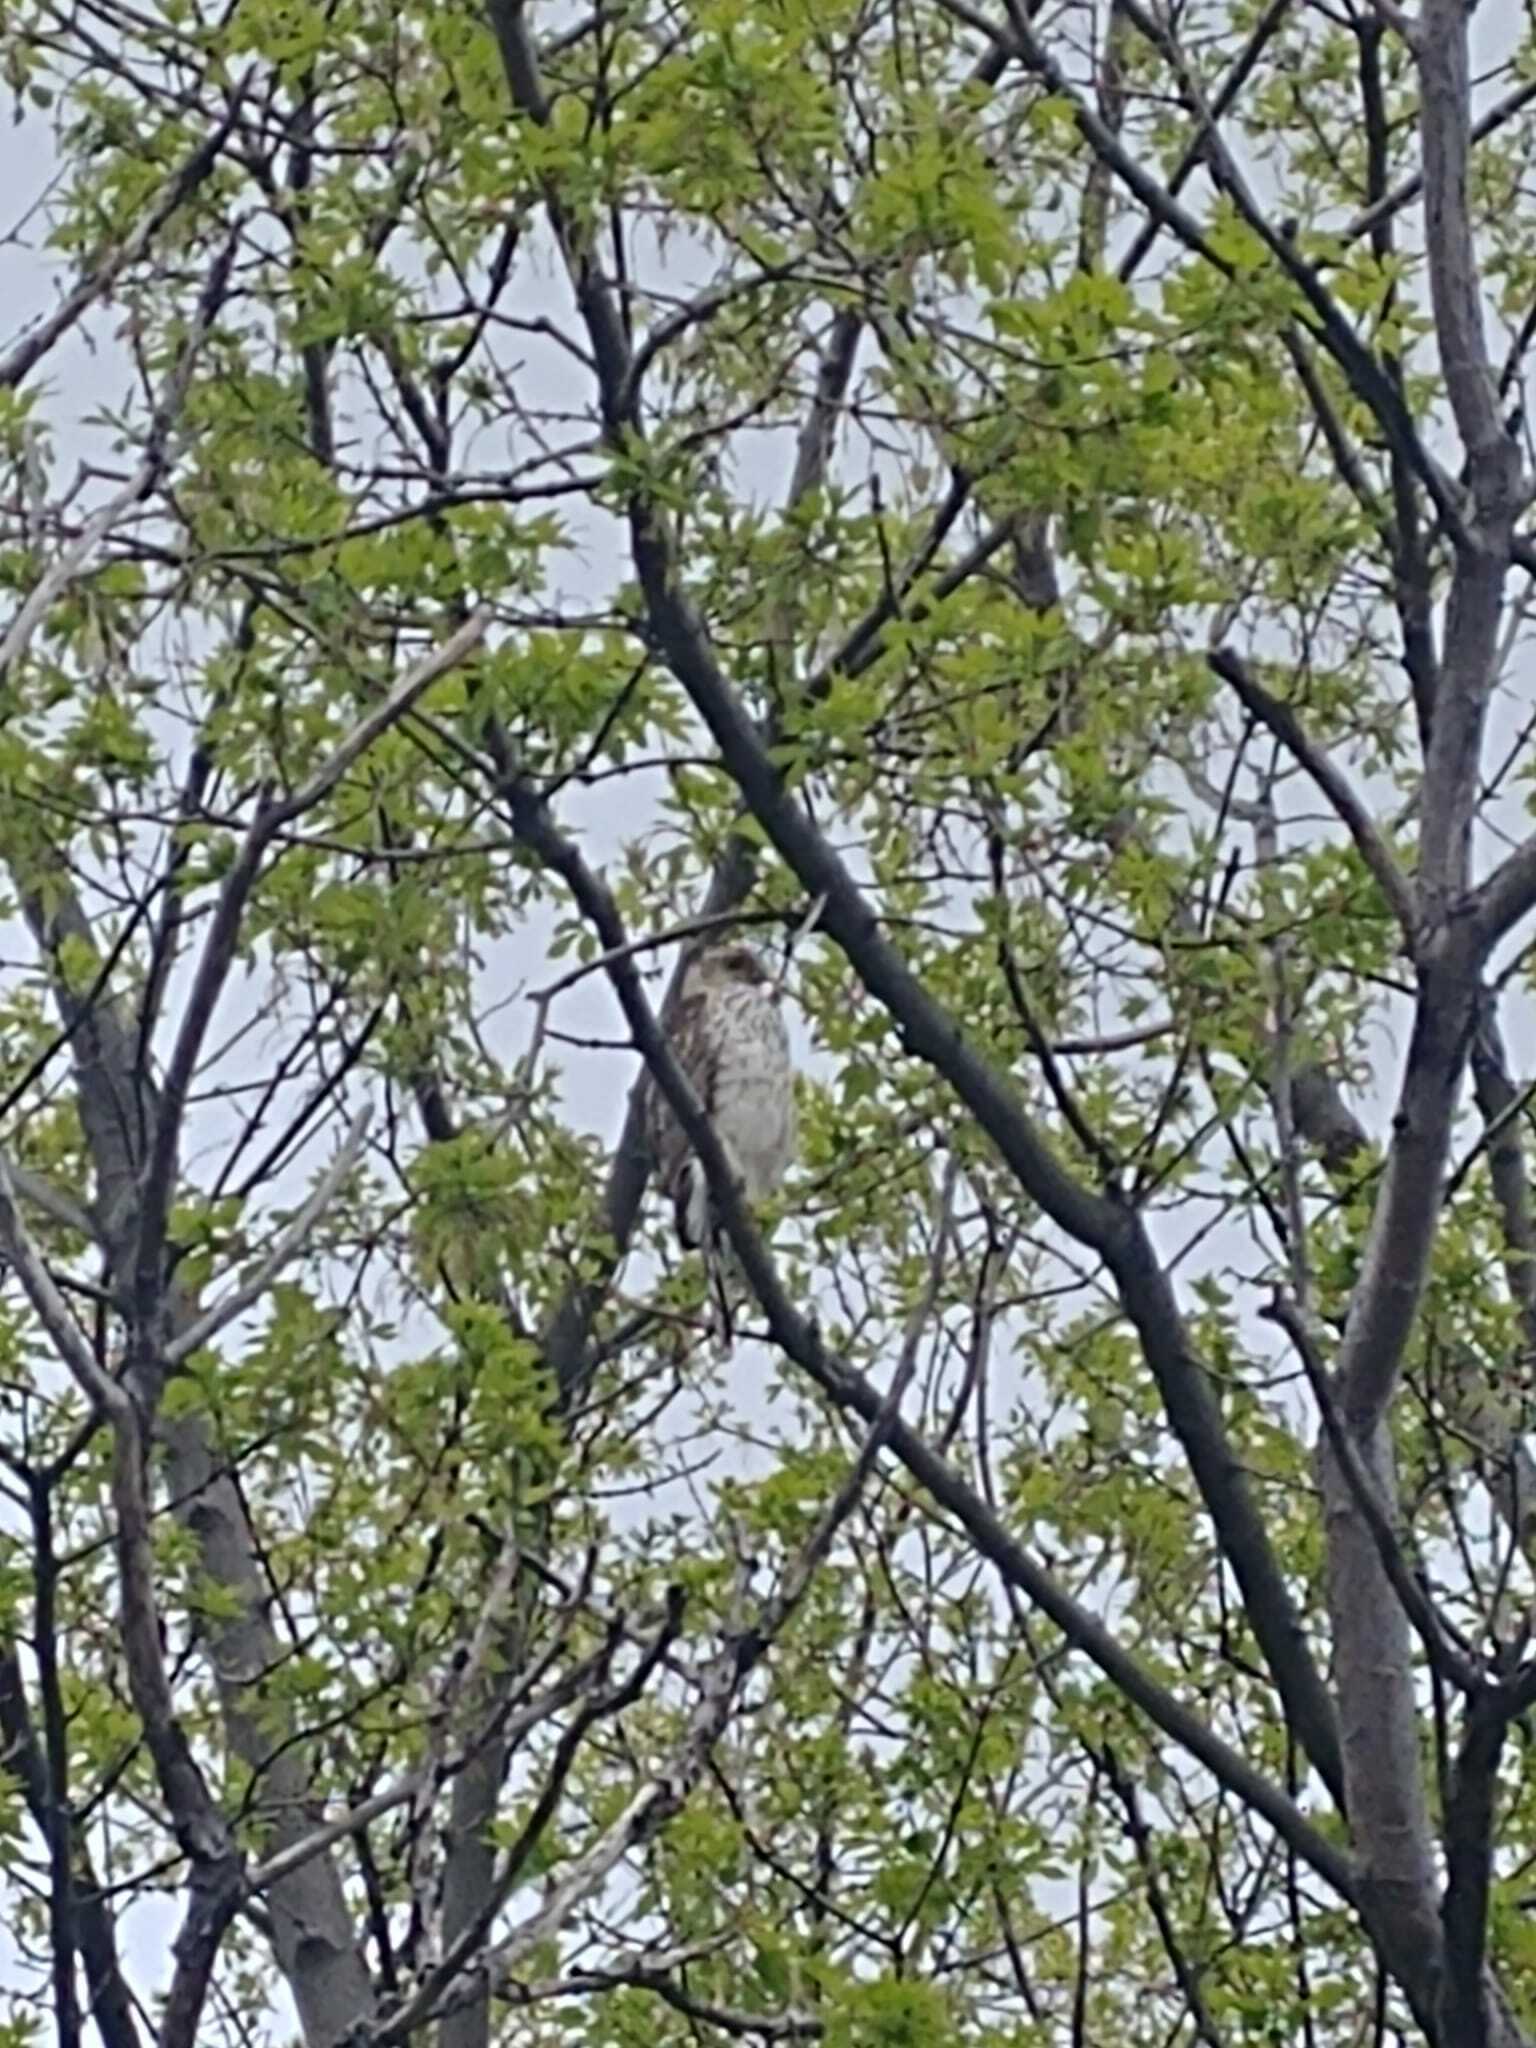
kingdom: Animalia
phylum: Chordata
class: Aves
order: Accipitriformes
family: Accipitridae
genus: Accipiter
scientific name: Accipiter cooperii
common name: Cooper's hawk
